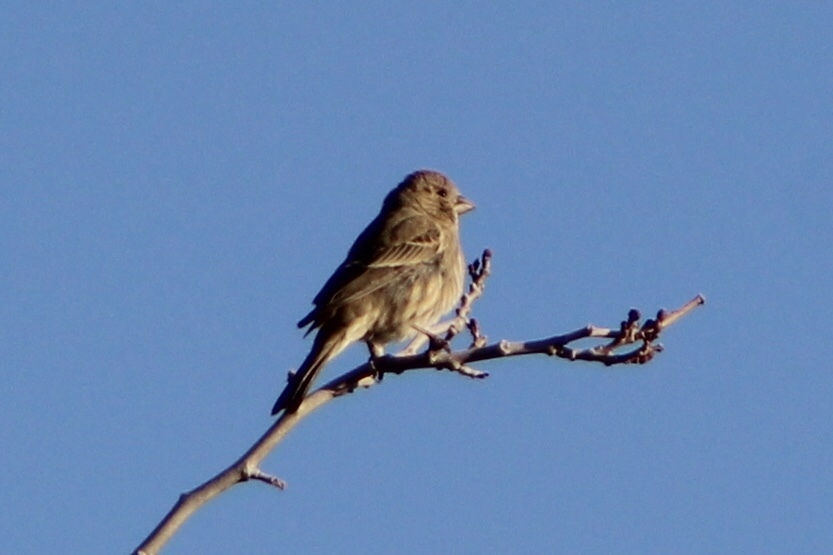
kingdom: Animalia
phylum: Chordata
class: Aves
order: Passeriformes
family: Fringillidae
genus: Haemorhous
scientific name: Haemorhous mexicanus
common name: House finch
